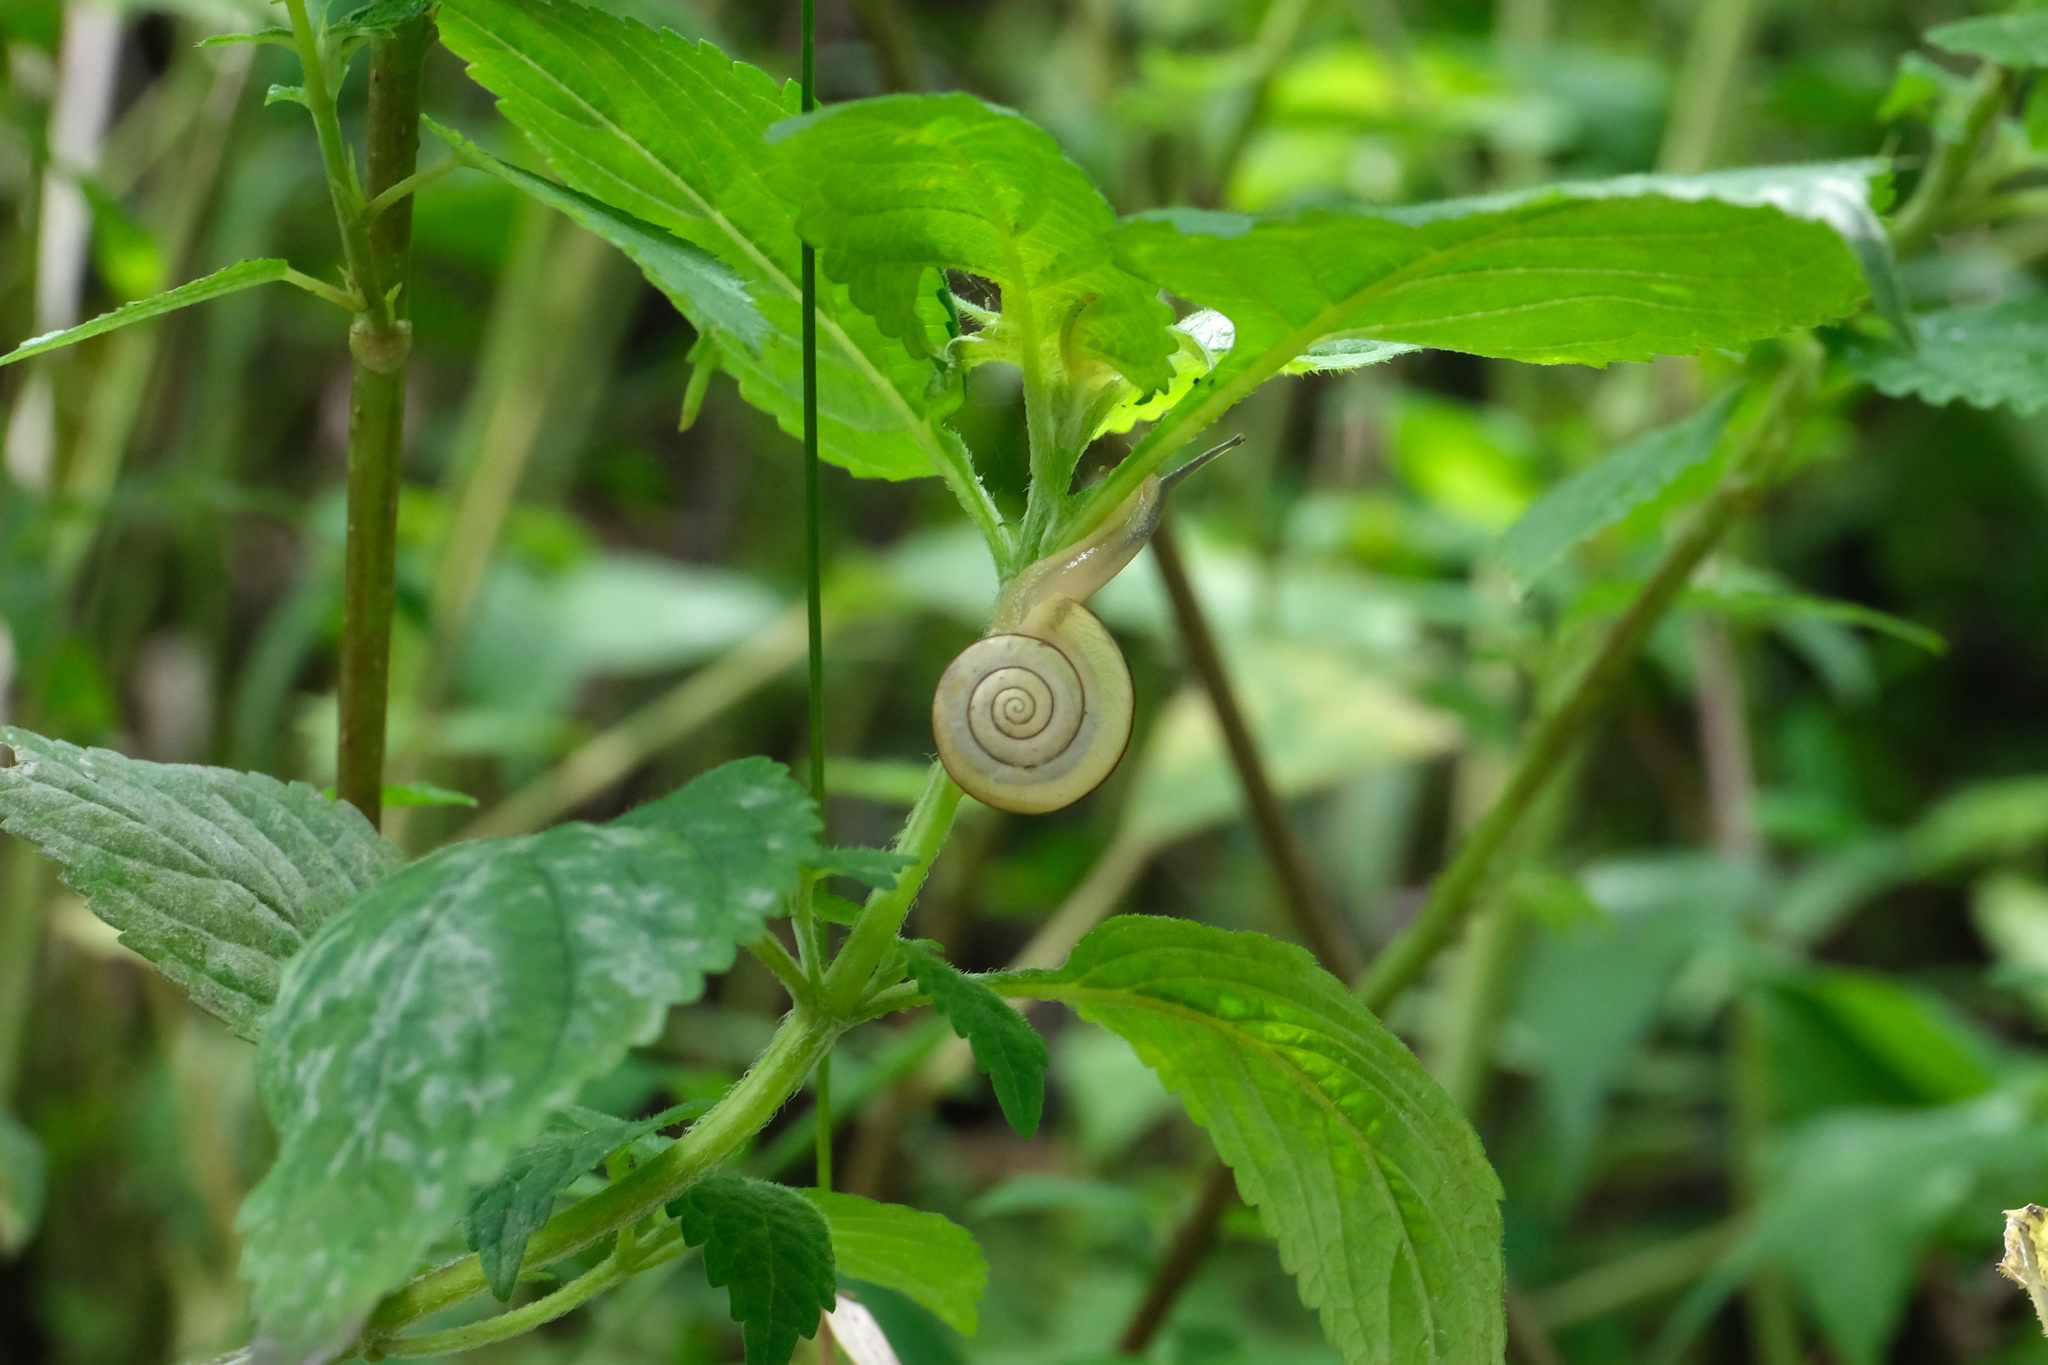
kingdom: Animalia
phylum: Mollusca
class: Gastropoda
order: Stylommatophora
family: Camaenidae
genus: Bradybaena
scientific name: Bradybaena fortunei
